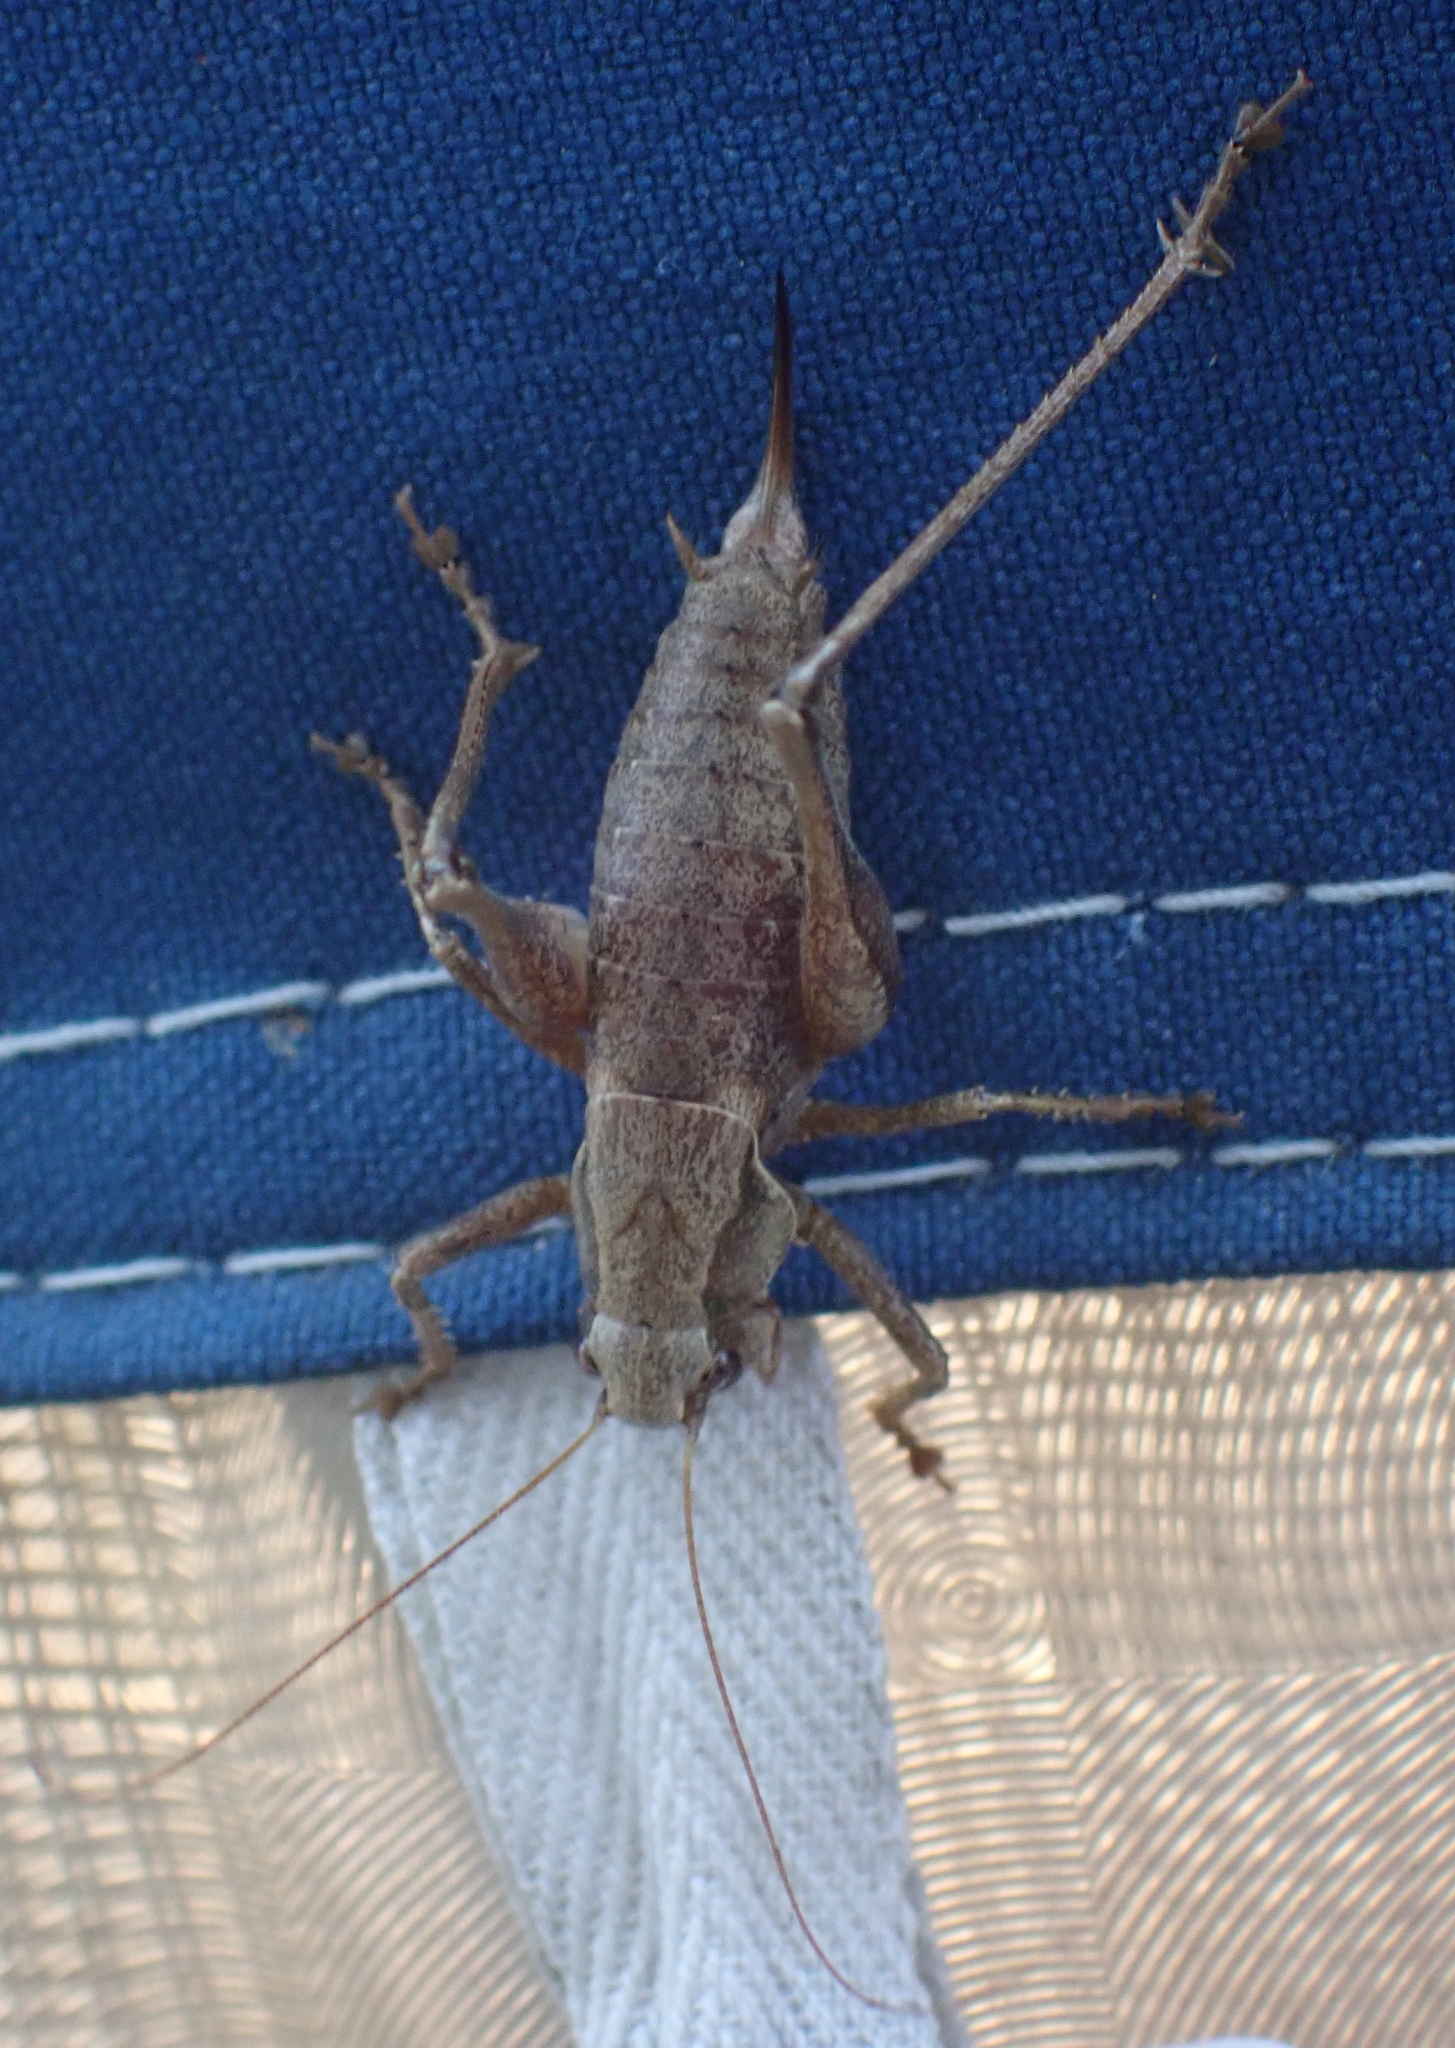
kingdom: Animalia
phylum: Arthropoda
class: Insecta
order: Orthoptera
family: Tettigoniidae
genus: Pholidoptera
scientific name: Pholidoptera griseoaptera
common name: Dark bush-cricket
